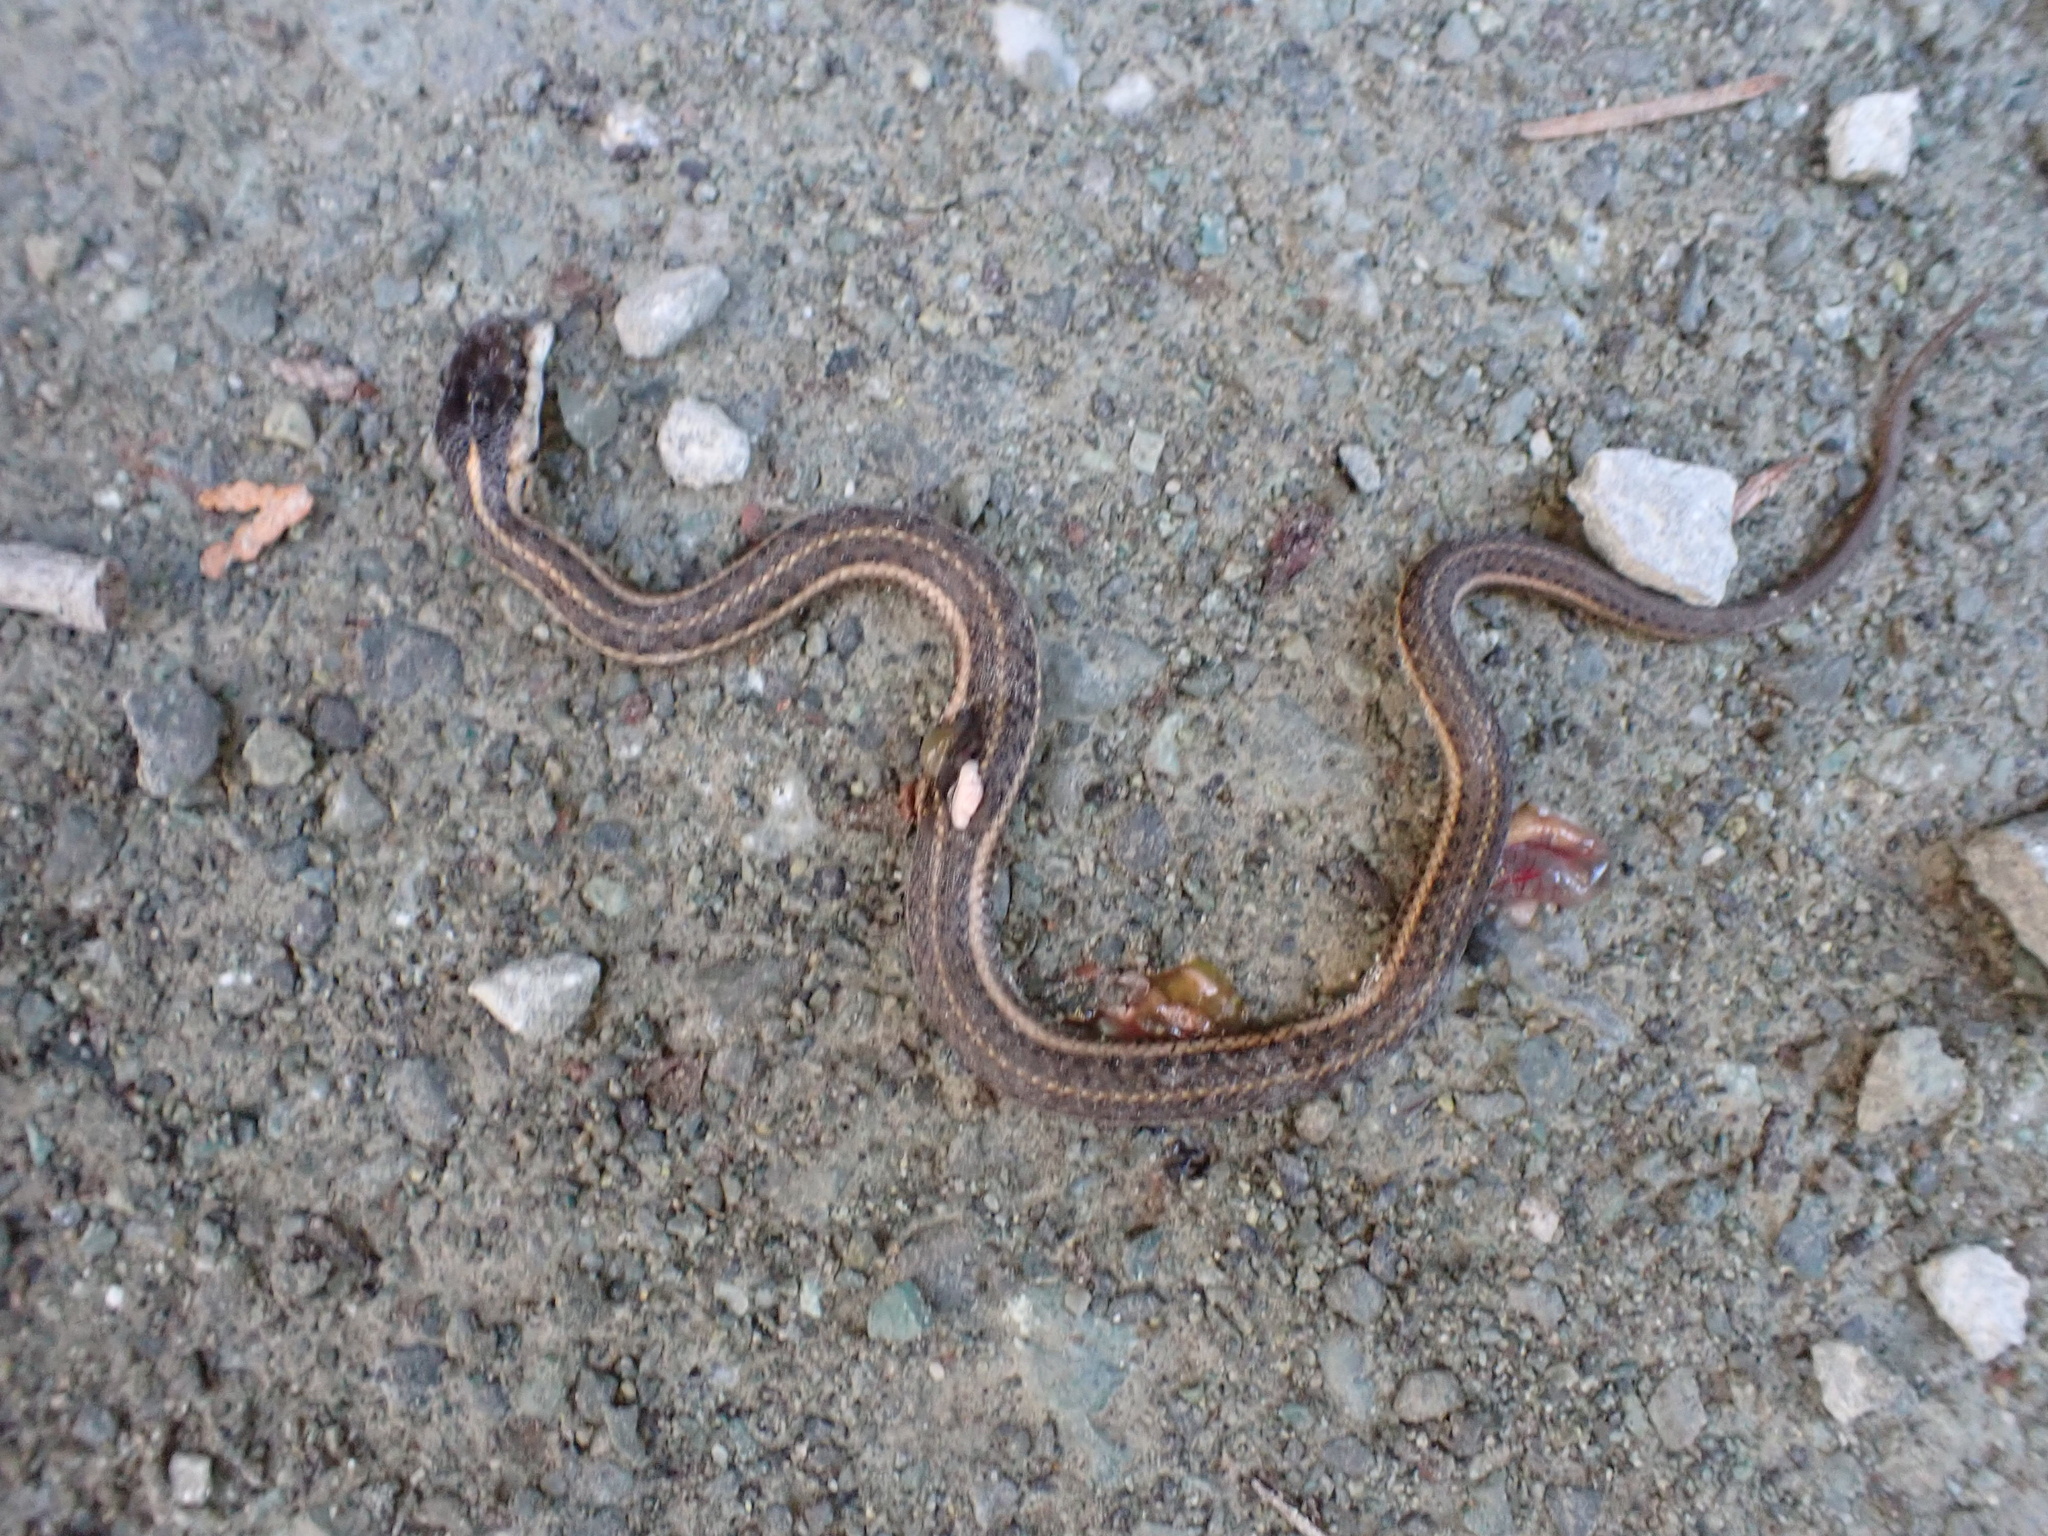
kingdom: Animalia
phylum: Chordata
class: Squamata
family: Colubridae
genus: Thamnophis
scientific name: Thamnophis ordinoides
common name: Northwestern garter snake
